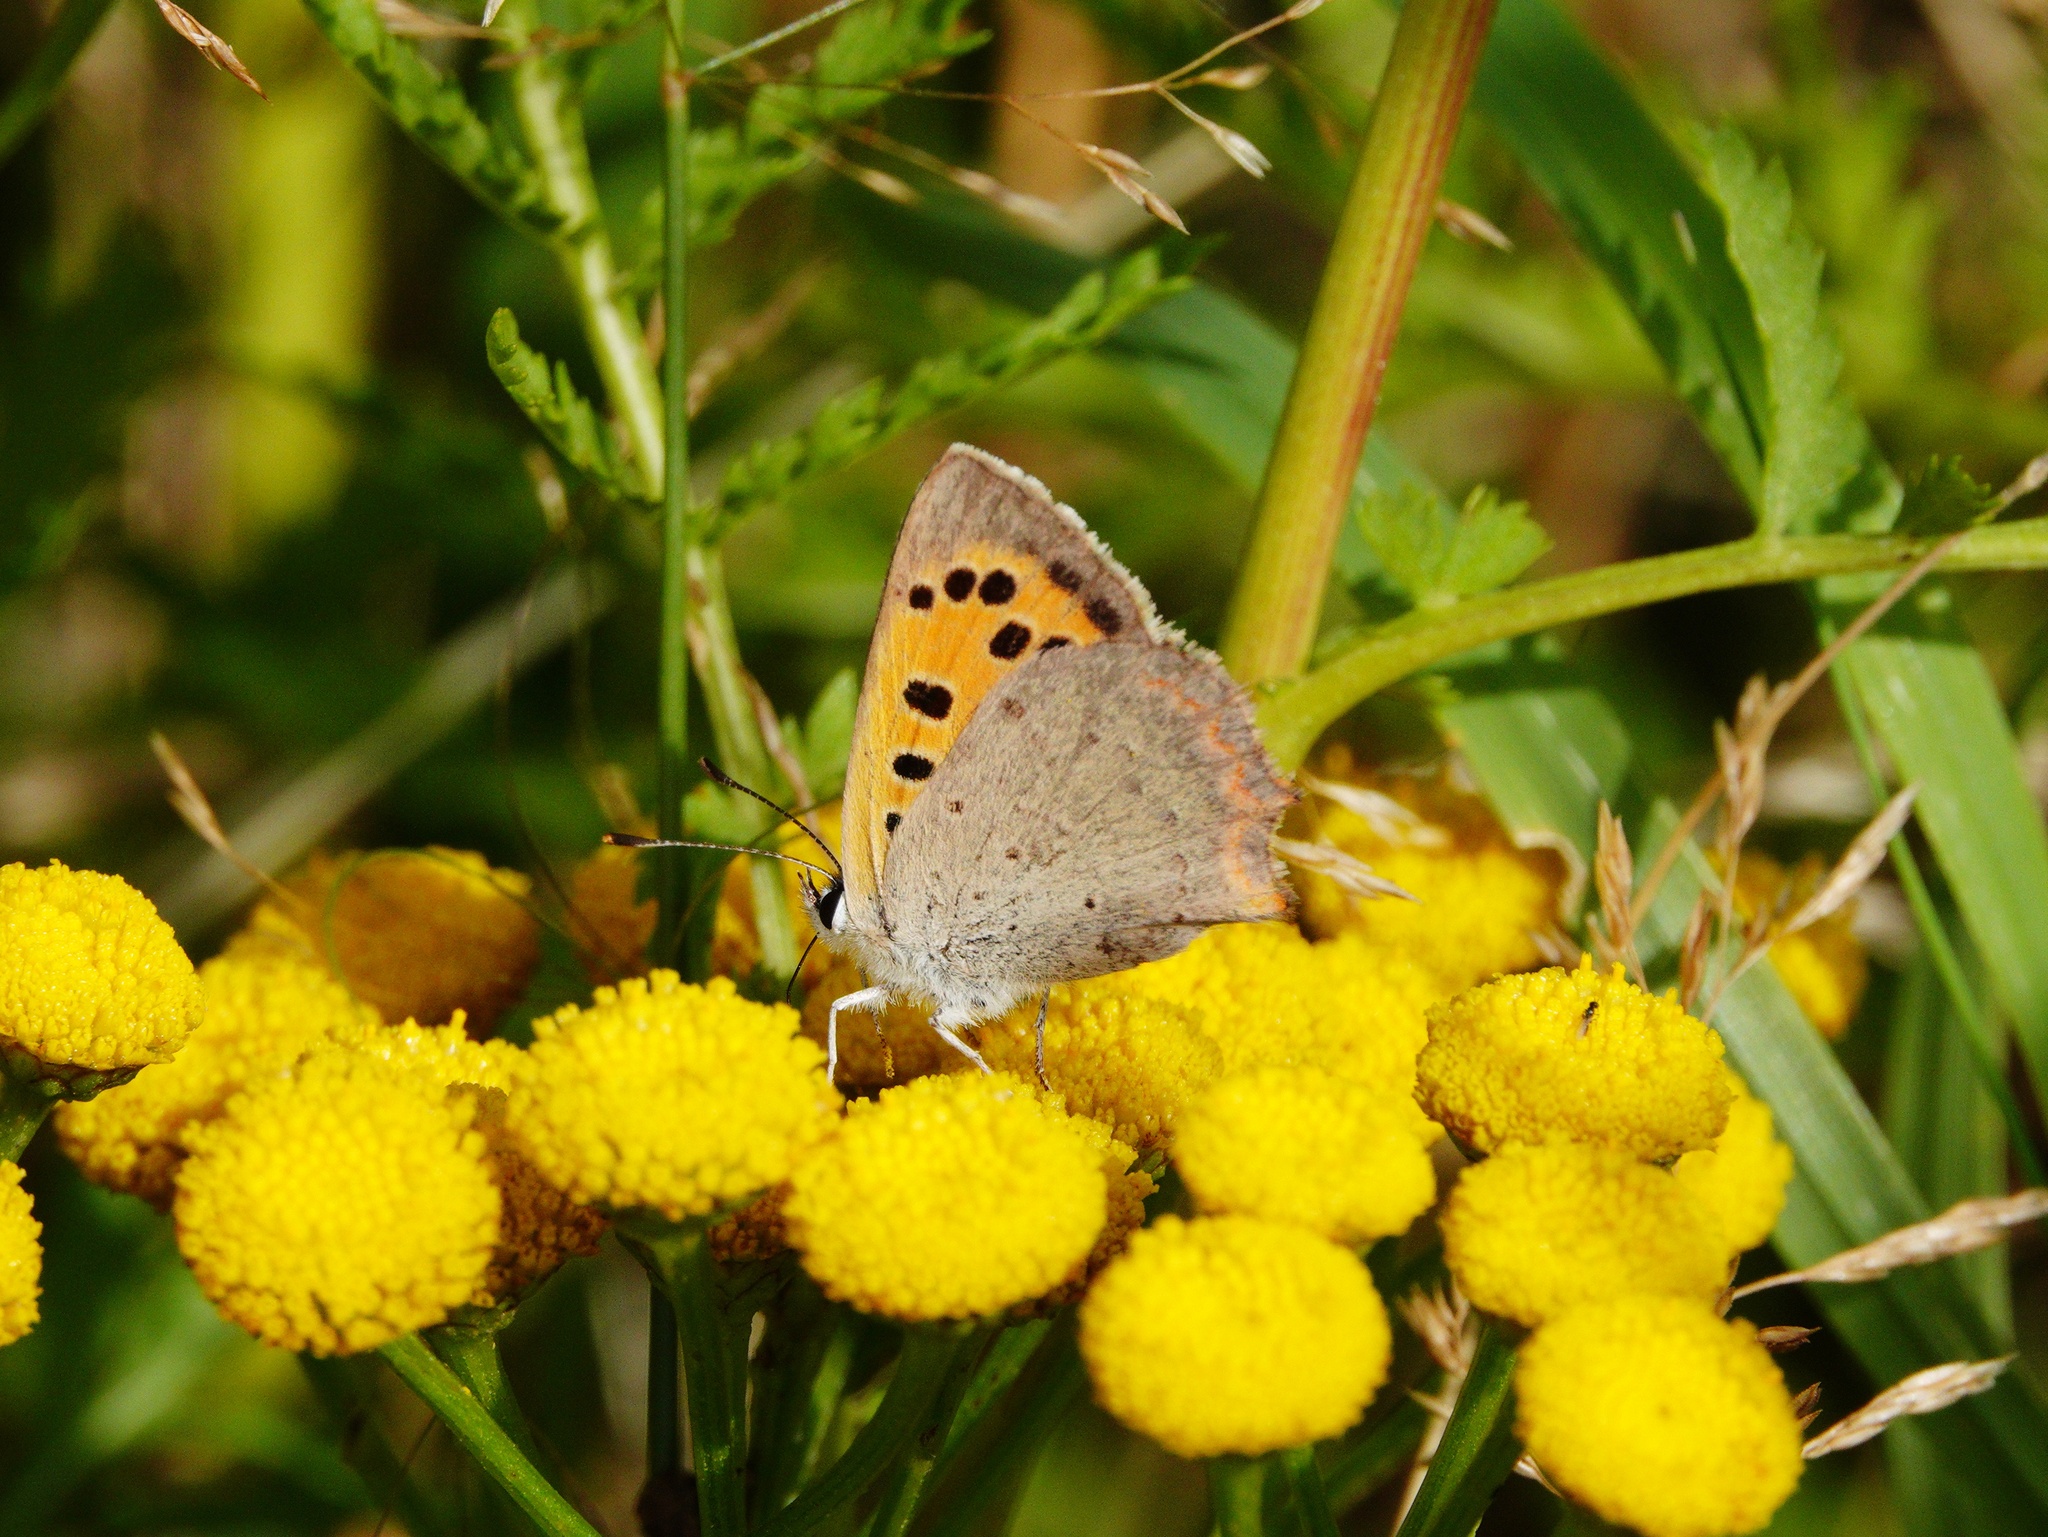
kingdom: Animalia
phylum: Arthropoda
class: Insecta
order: Lepidoptera
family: Lycaenidae
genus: Lycaena
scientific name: Lycaena phlaeas
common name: Small copper
